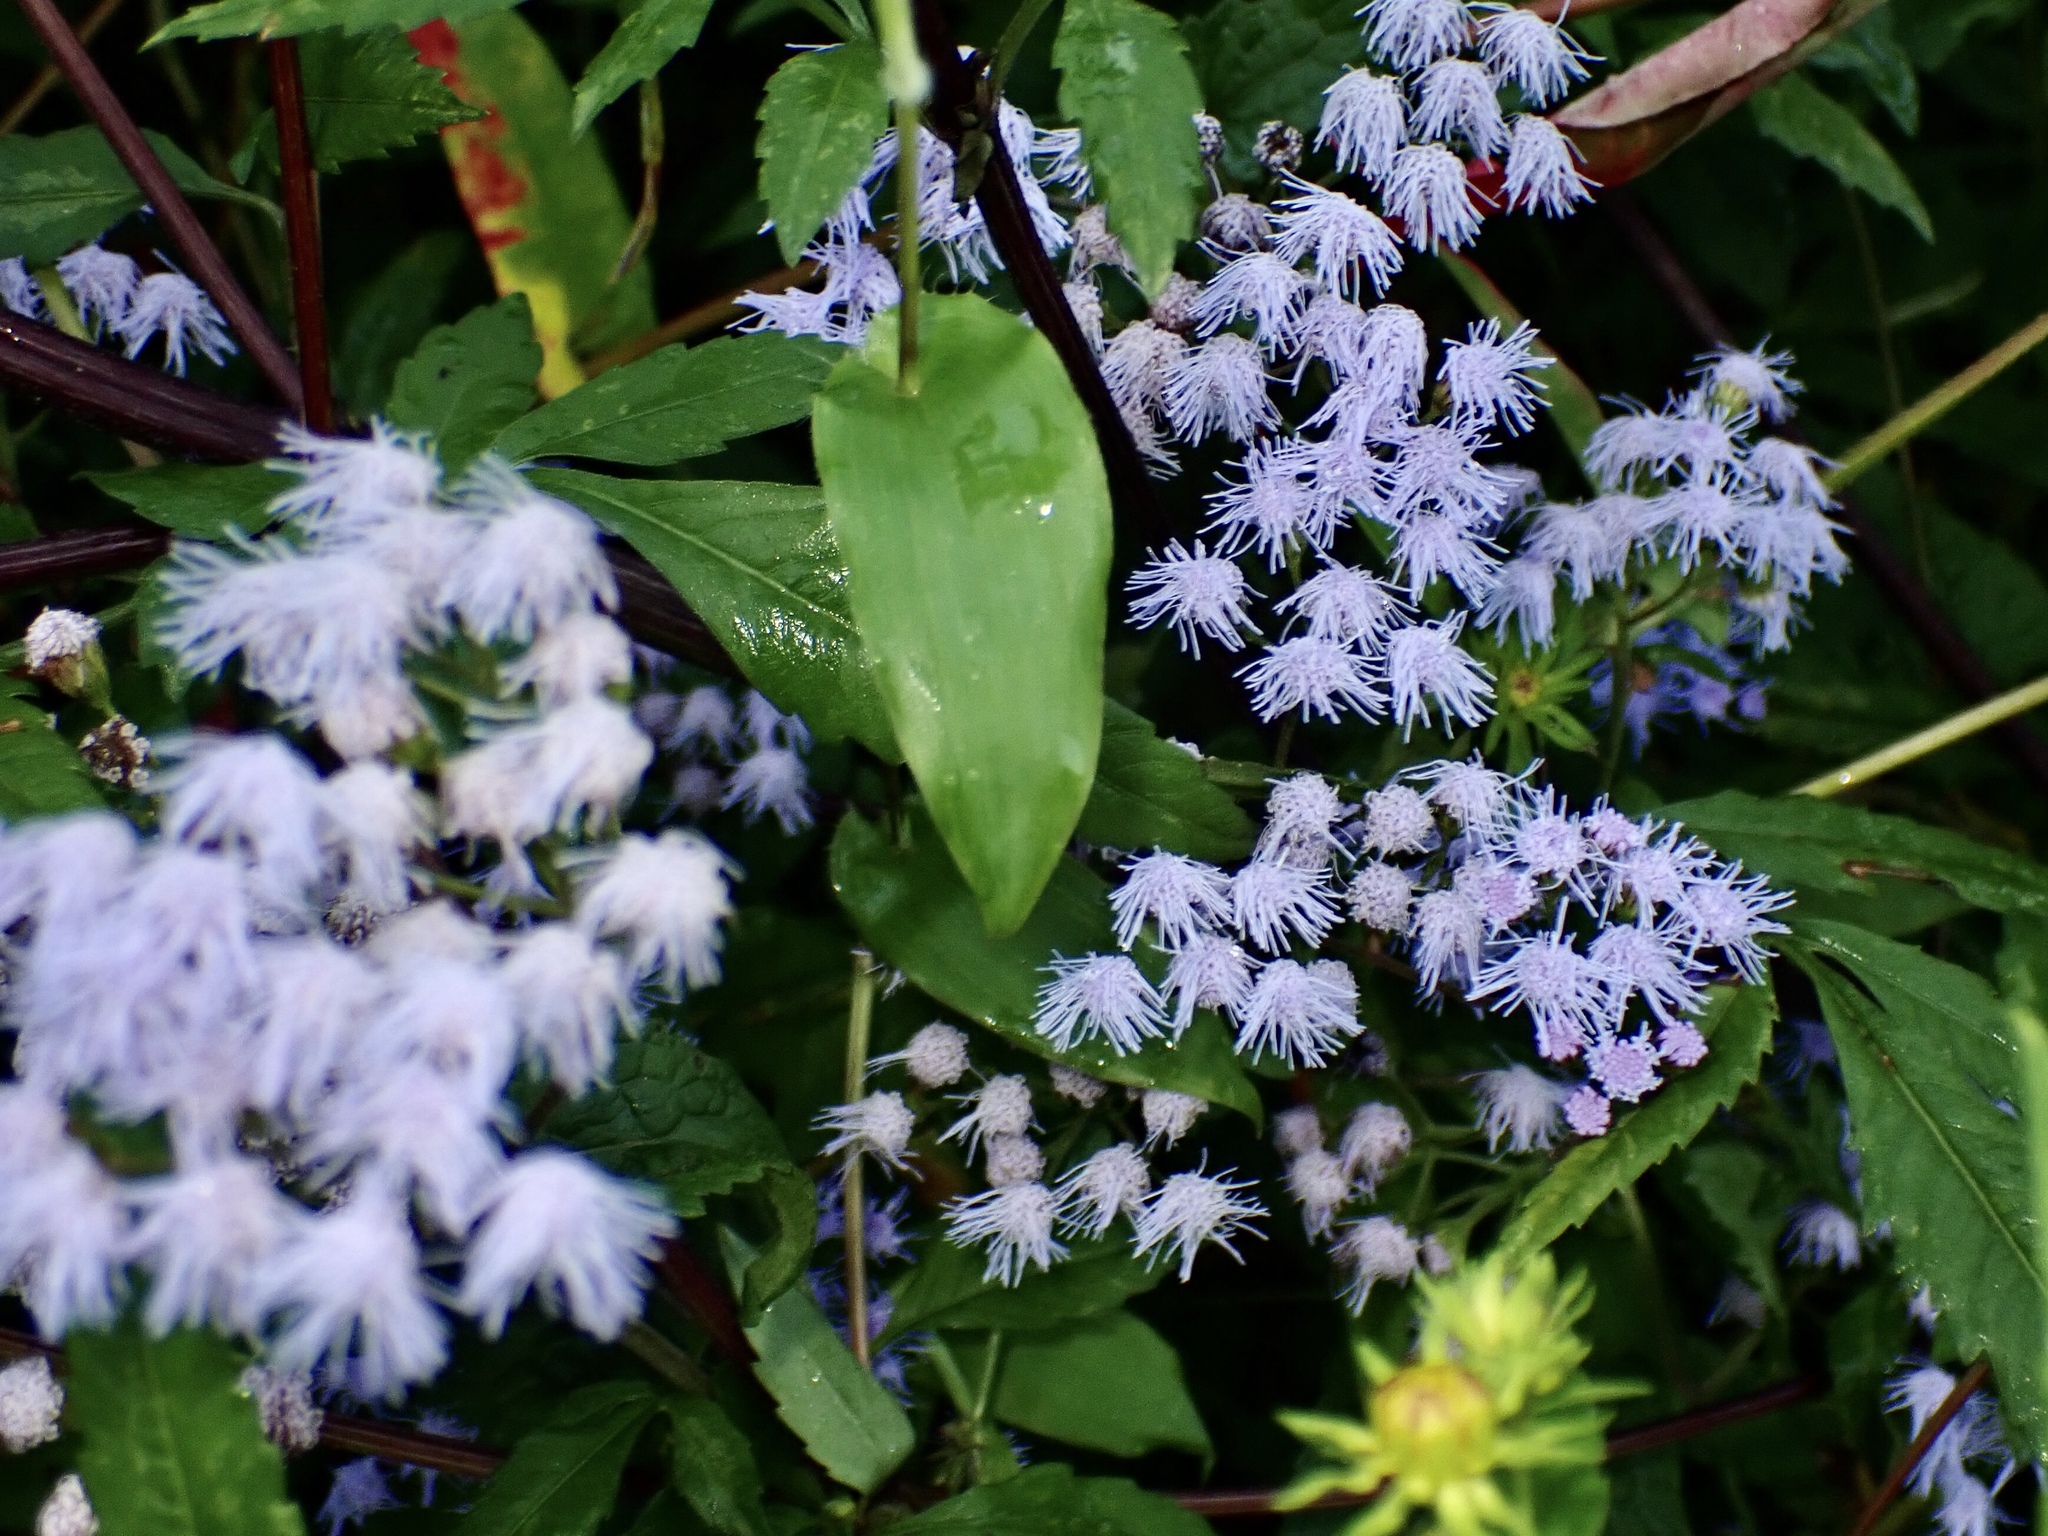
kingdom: Plantae
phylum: Tracheophyta
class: Magnoliopsida
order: Asterales
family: Asteraceae
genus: Conoclinium
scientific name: Conoclinium coelestinum
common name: Blue mistflower
